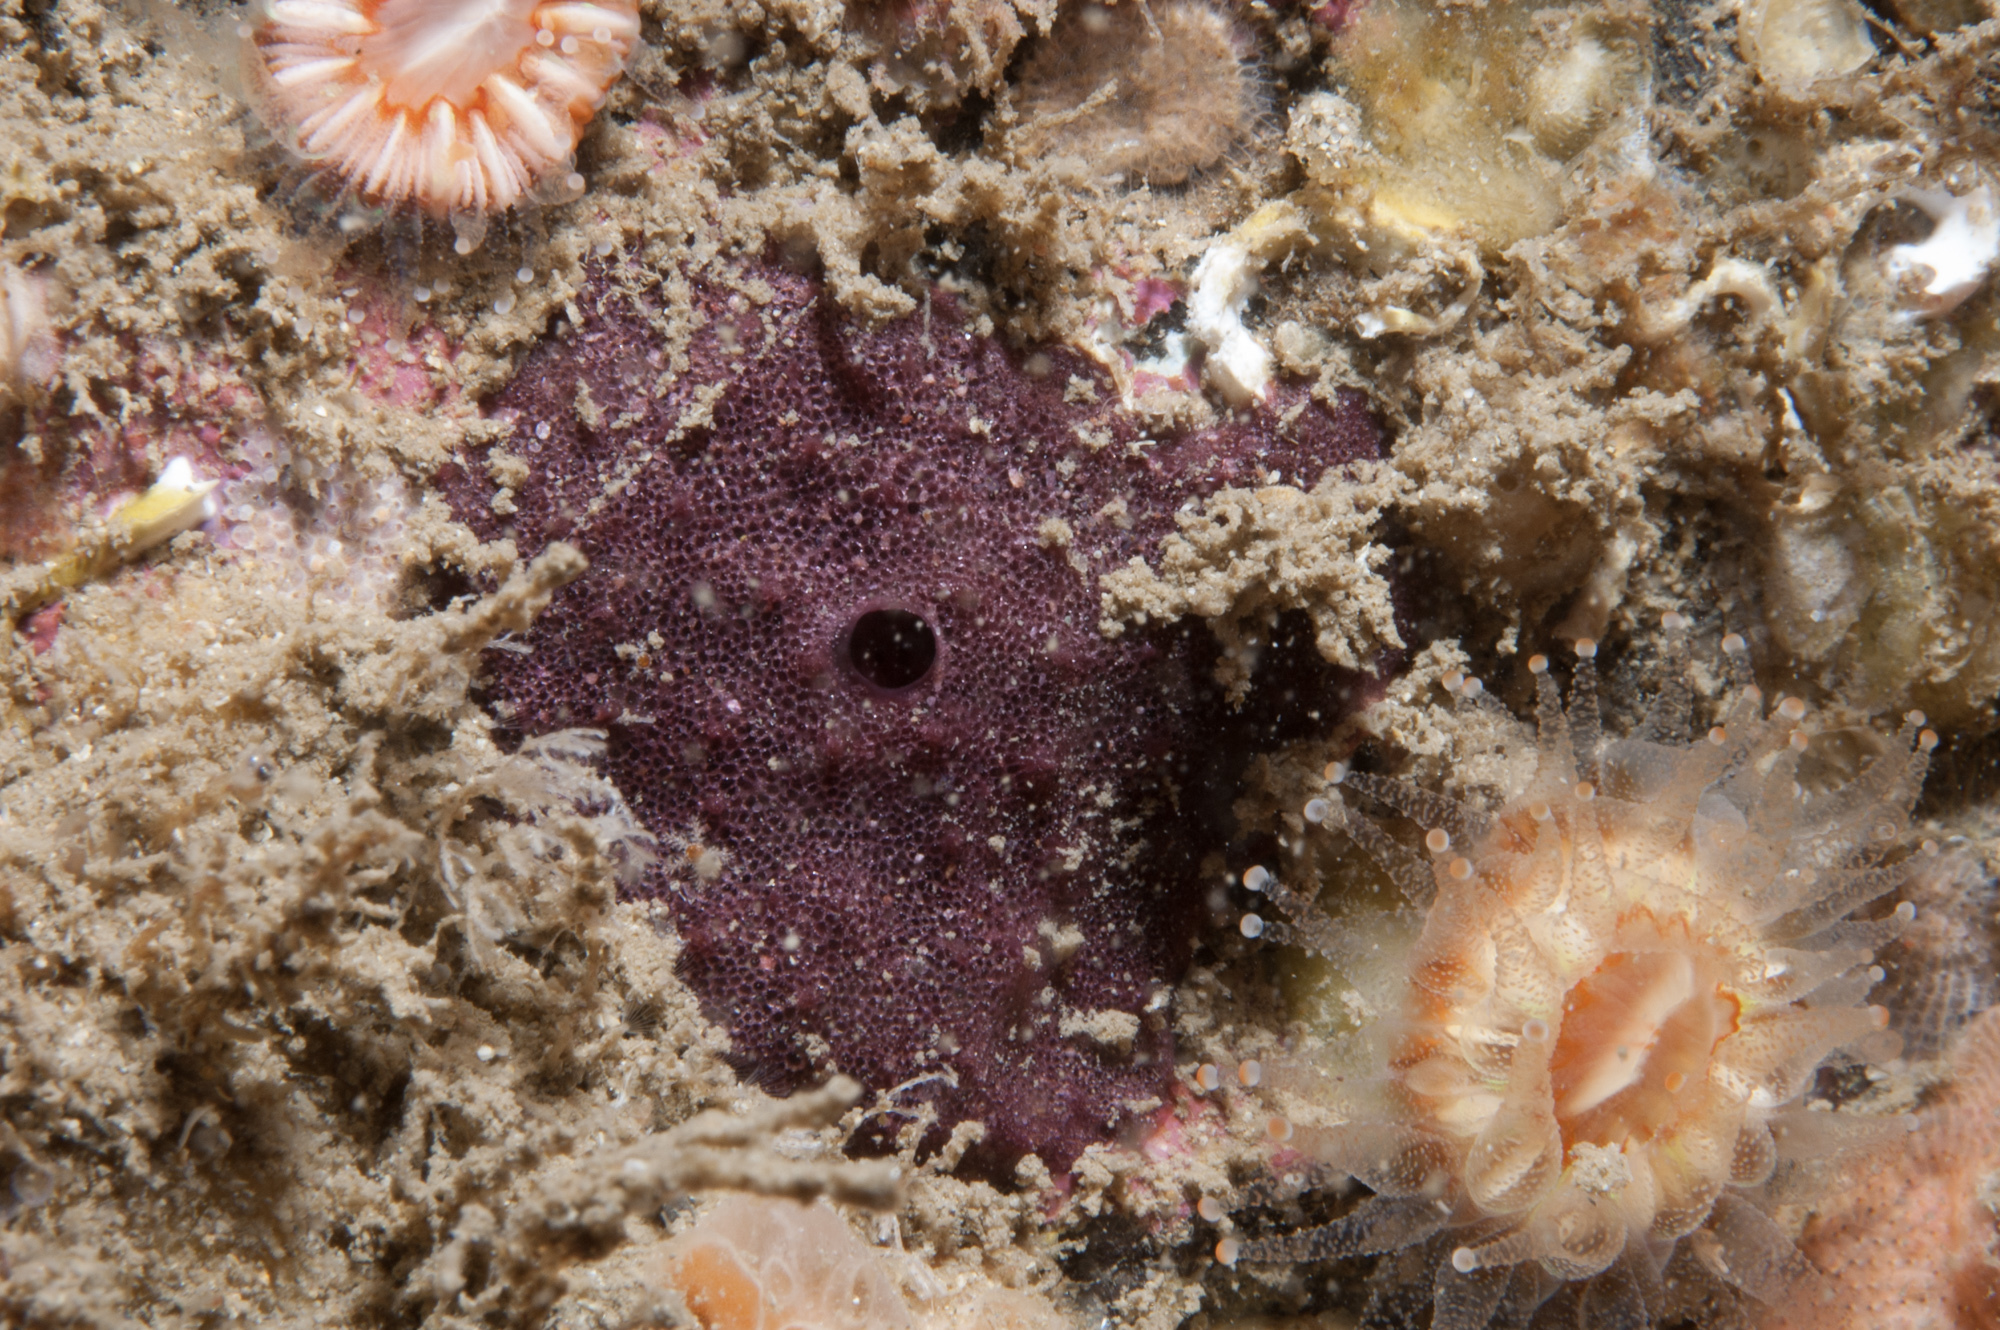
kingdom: Animalia
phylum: Porifera
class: Demospongiae
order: Dendroceratida
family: Darwinellidae
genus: Chelonaplysilla
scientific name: Chelonaplysilla noevus
